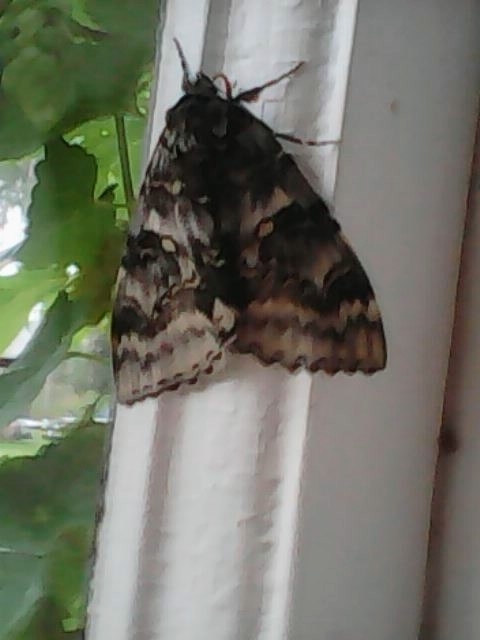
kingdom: Animalia
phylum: Arthropoda
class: Insecta
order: Lepidoptera
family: Erebidae
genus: Catocala
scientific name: Catocala fraxini
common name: Clifden nonpareil
